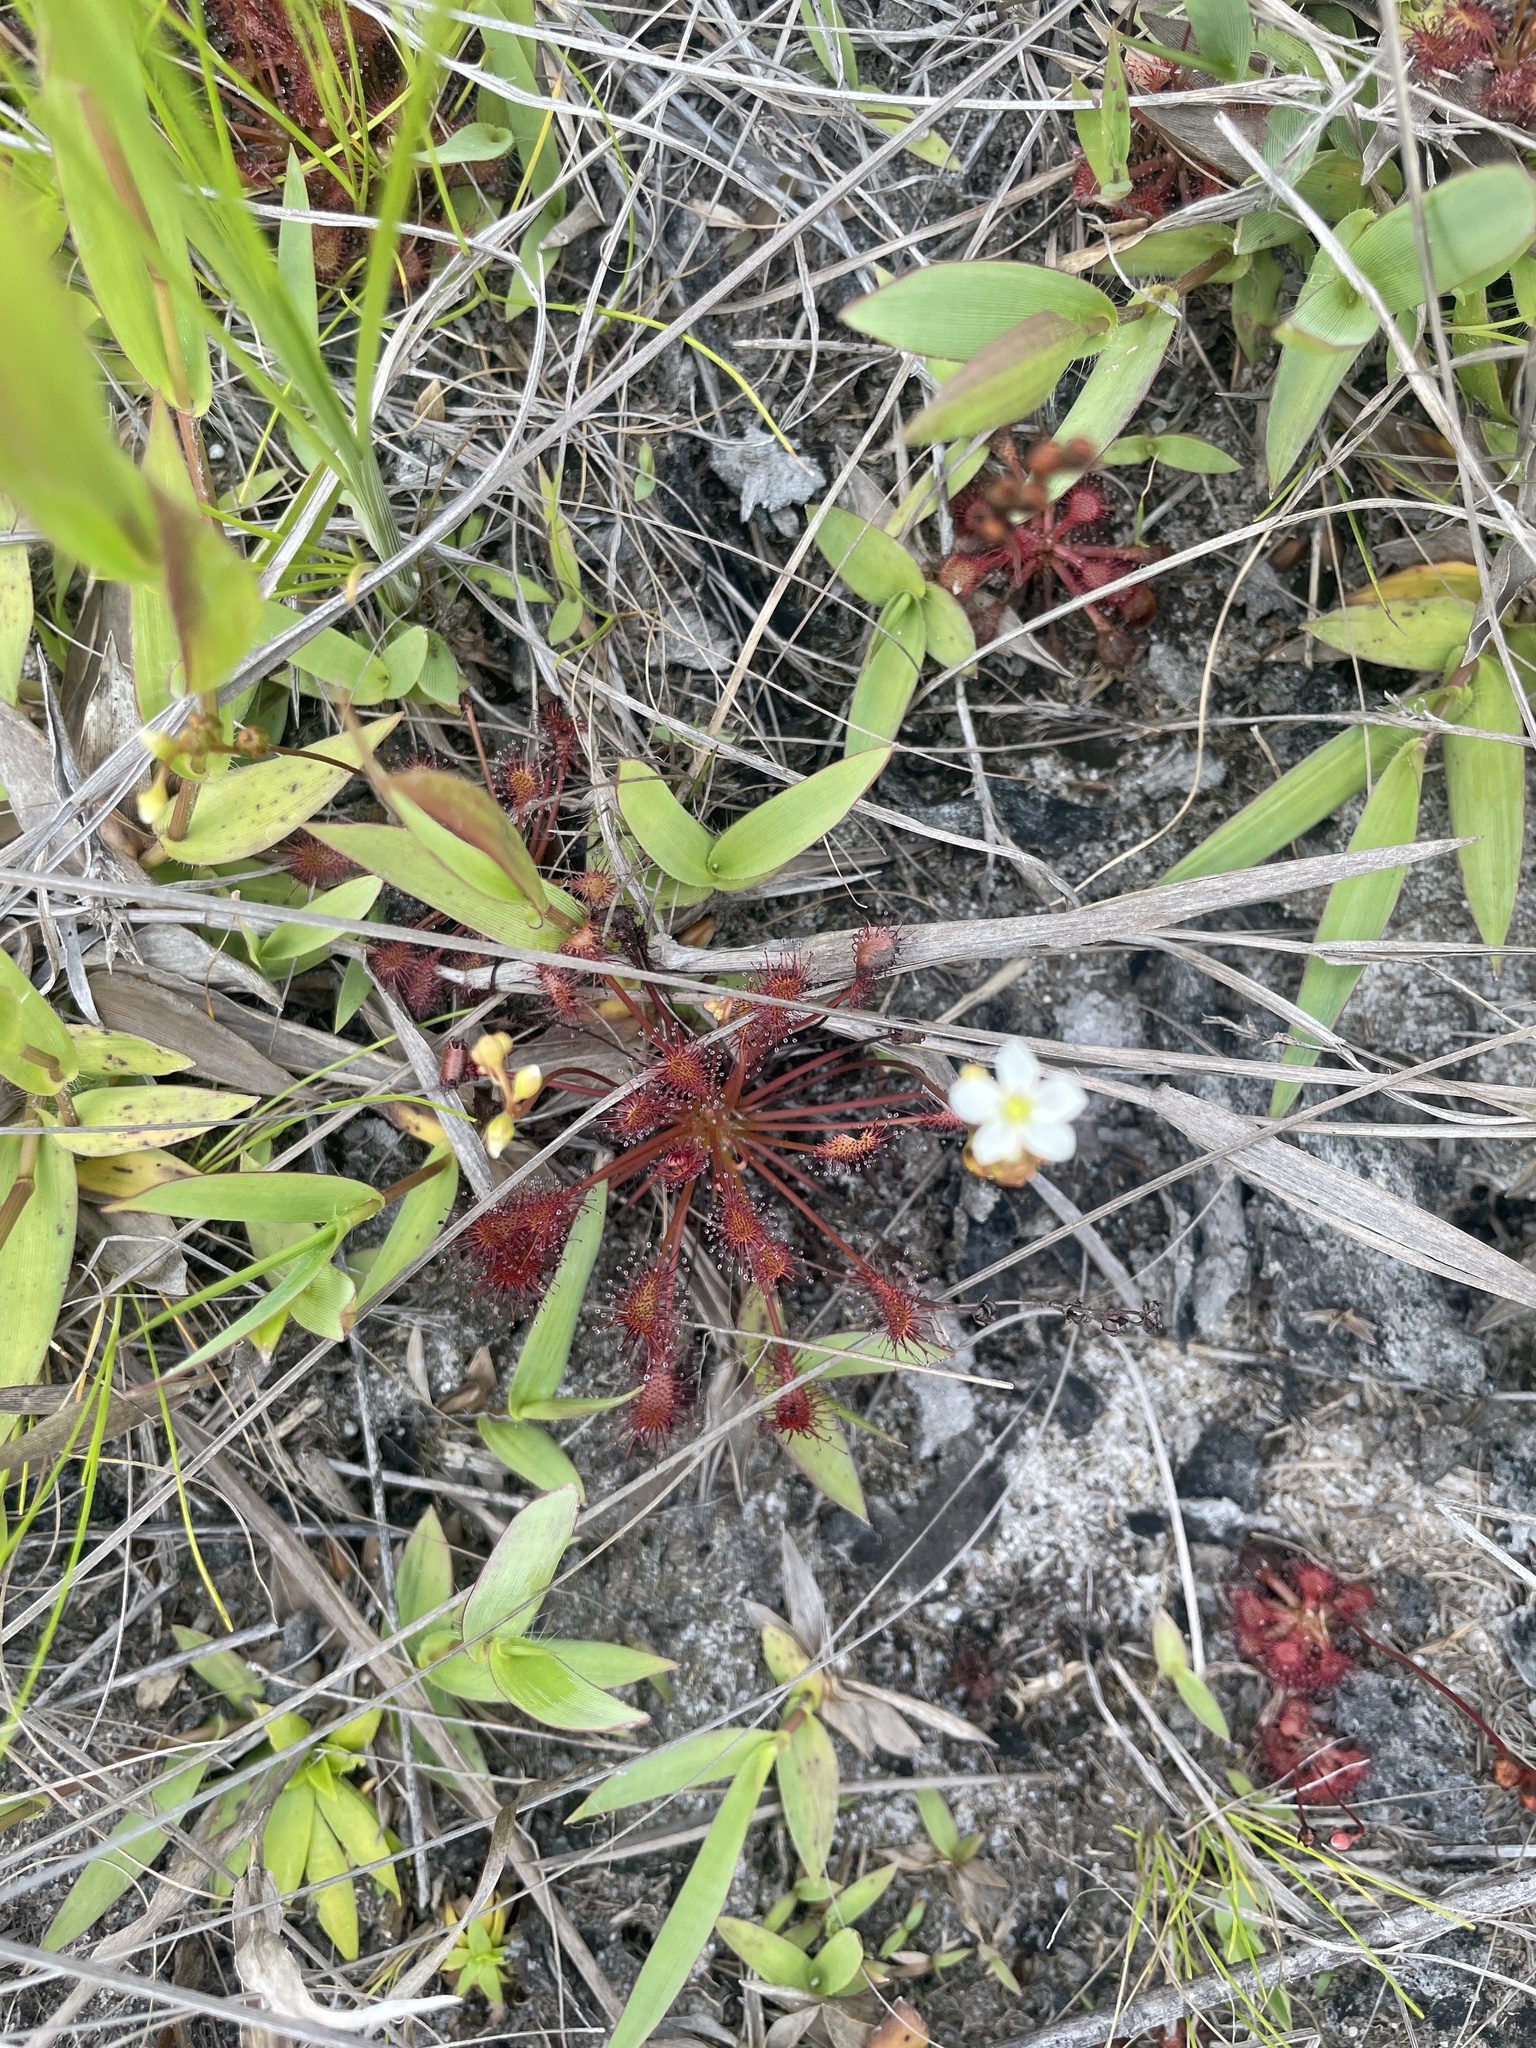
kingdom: Plantae
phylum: Tracheophyta
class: Magnoliopsida
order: Caryophyllales
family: Droseraceae
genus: Drosera
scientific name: Drosera intermedia
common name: Oblong-leaved sundew
